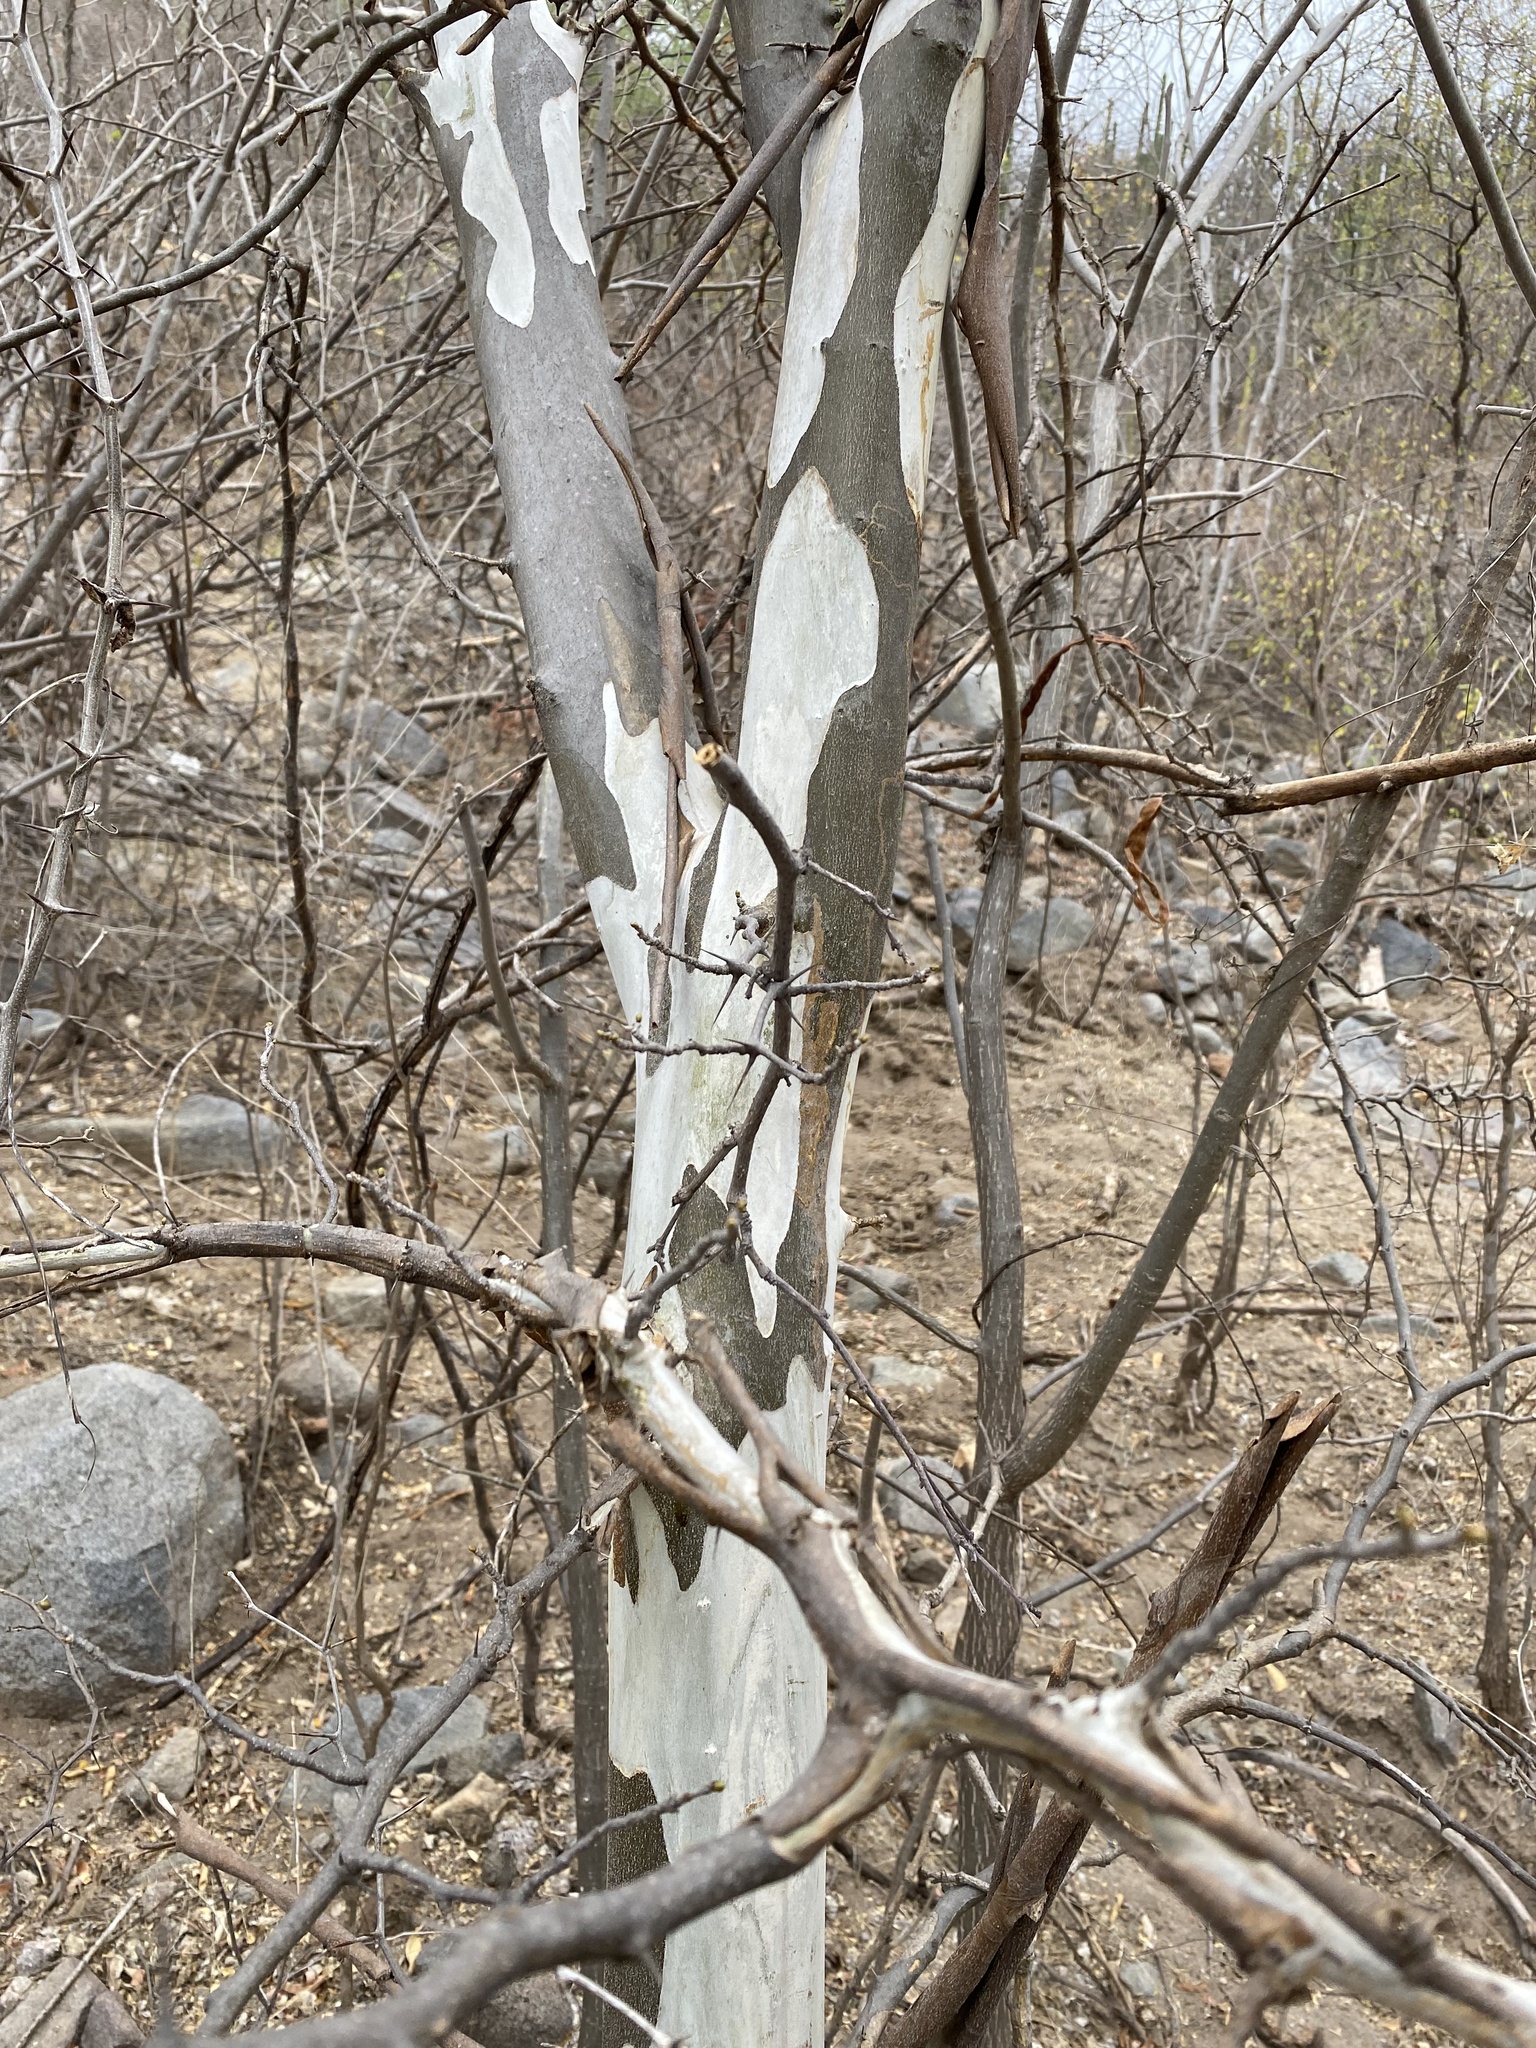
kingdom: Plantae
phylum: Tracheophyta
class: Magnoliopsida
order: Fabales
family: Fabaceae
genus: Chloroleucon
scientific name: Chloroleucon mangense
